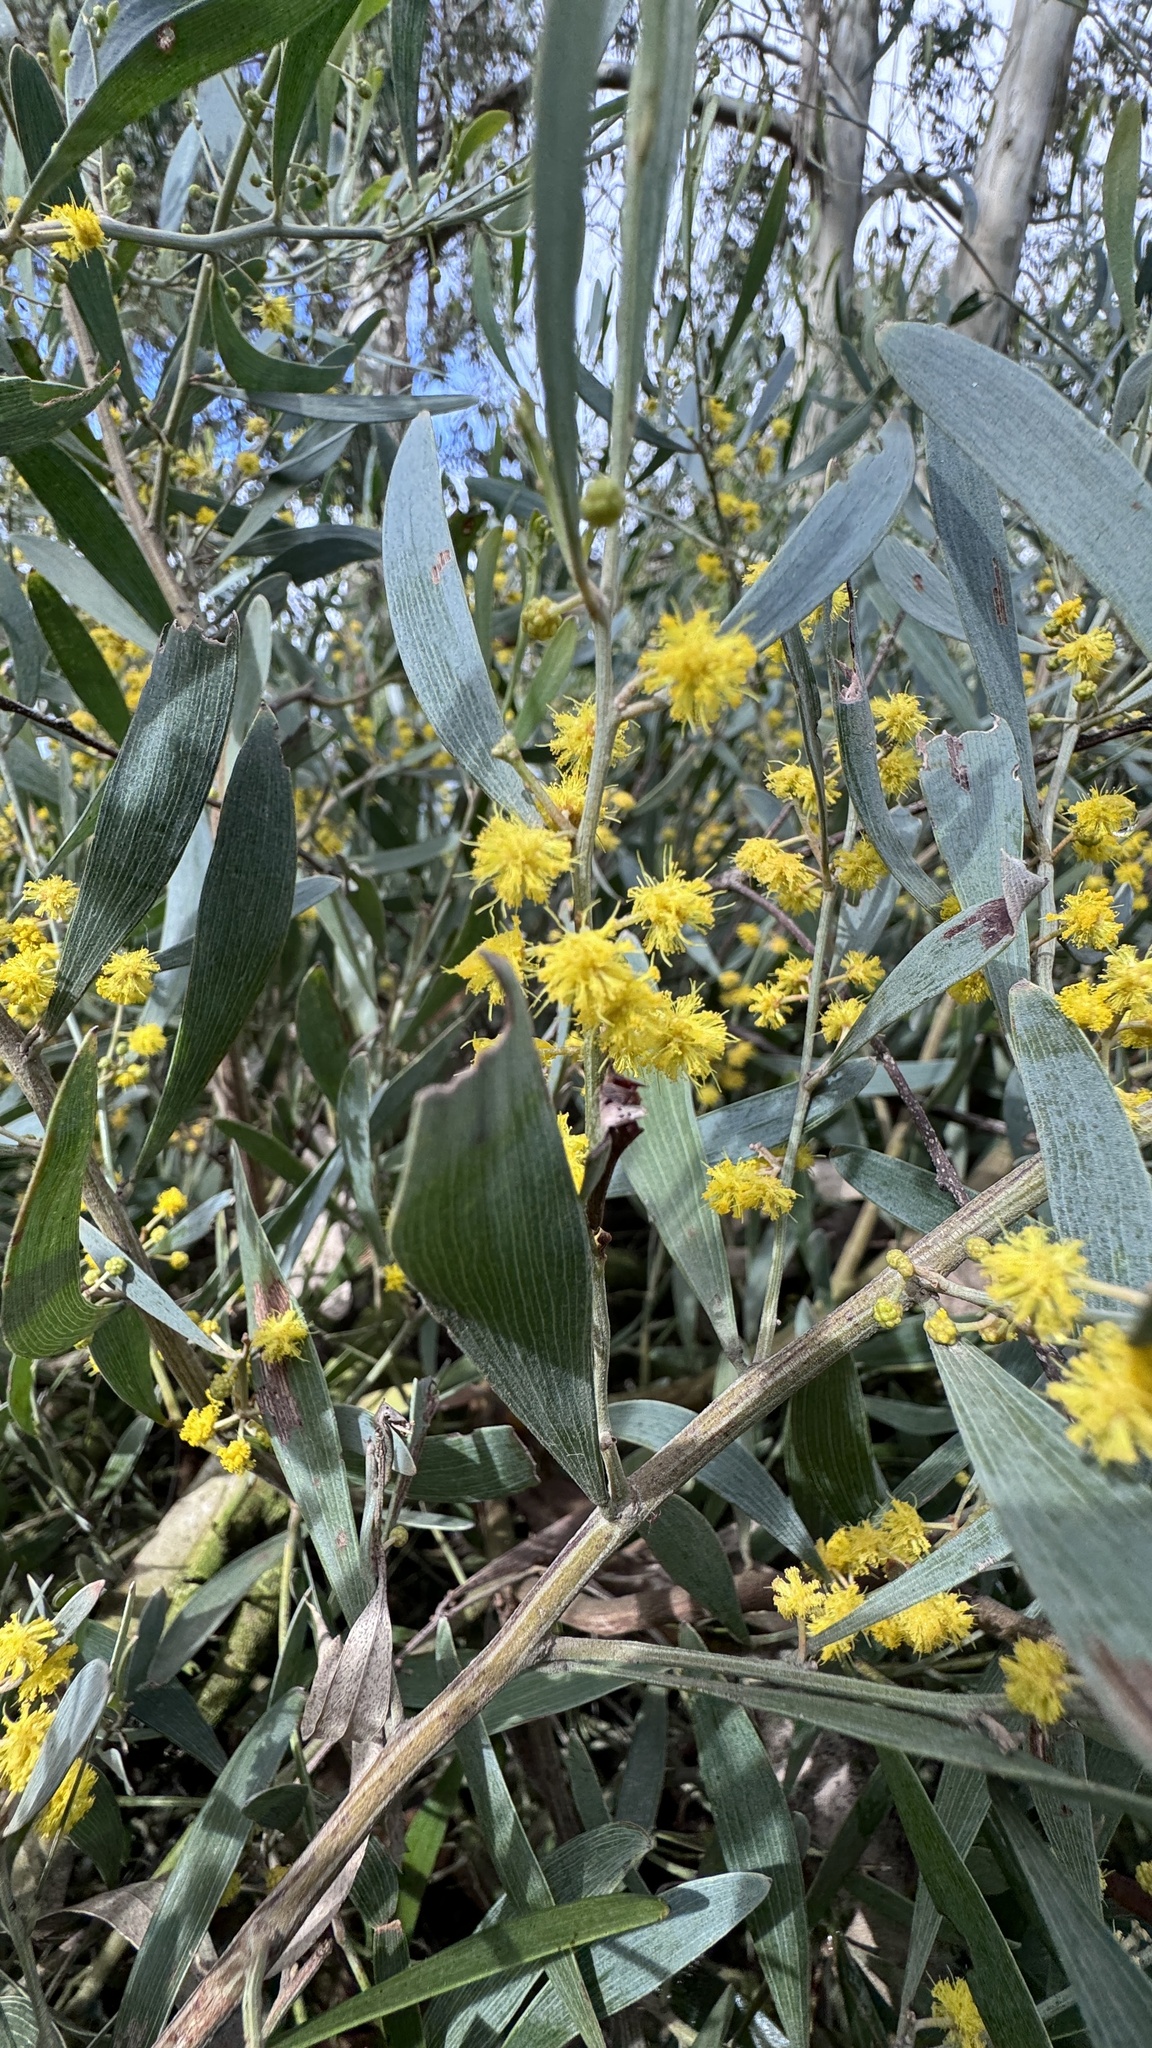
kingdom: Plantae
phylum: Tracheophyta
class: Magnoliopsida
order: Fabales
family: Fabaceae
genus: Acacia
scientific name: Acacia cyclops
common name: Coastal wattle
